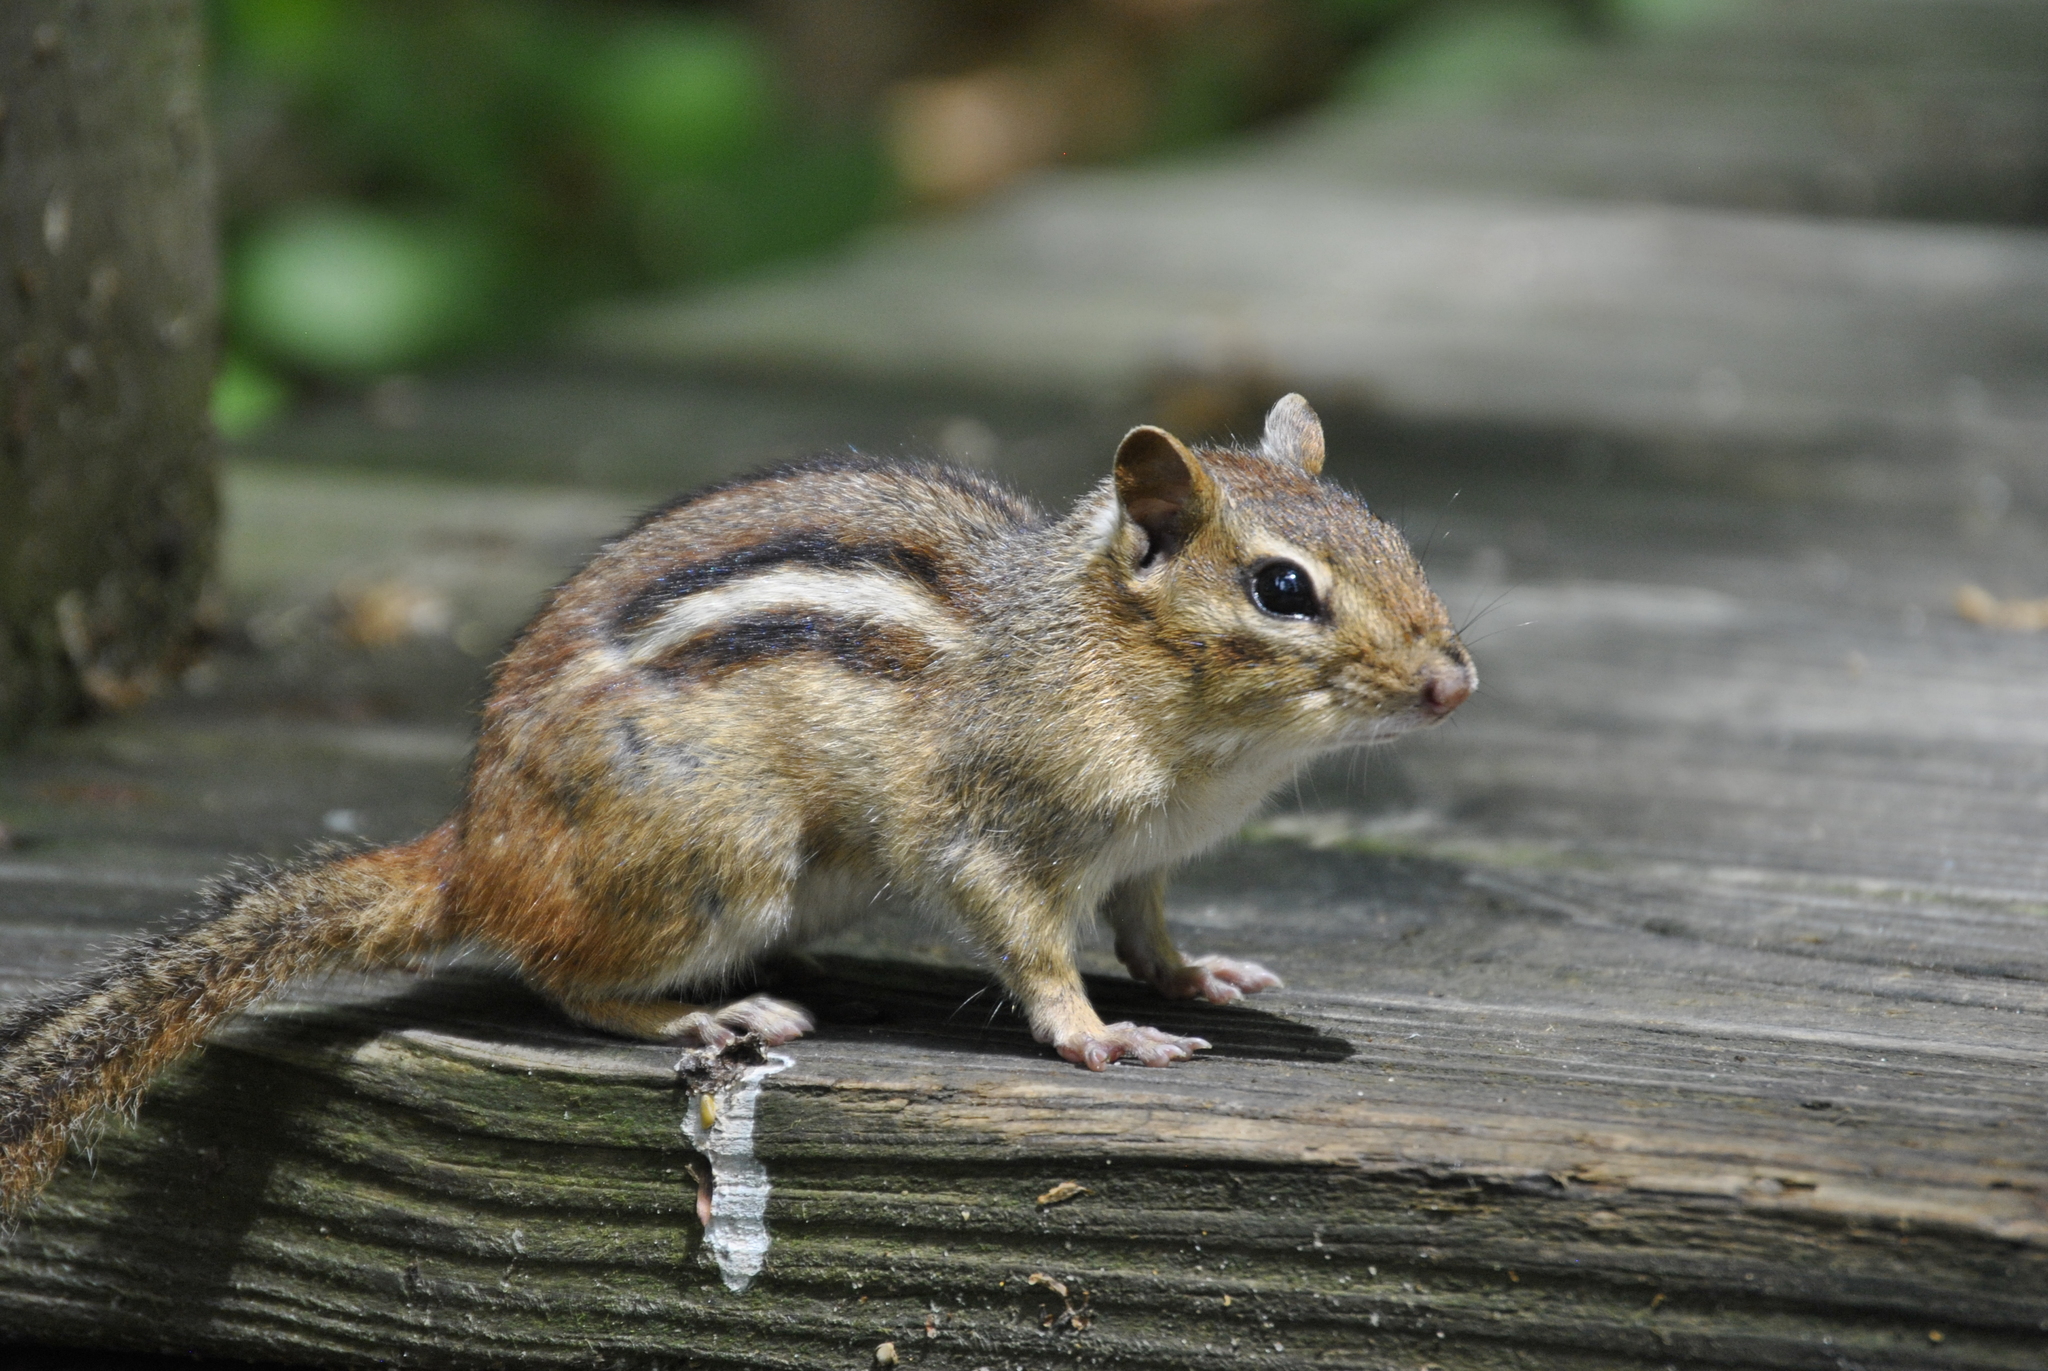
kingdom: Animalia
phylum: Chordata
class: Mammalia
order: Rodentia
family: Sciuridae
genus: Tamias
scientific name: Tamias striatus
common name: Eastern chipmunk
